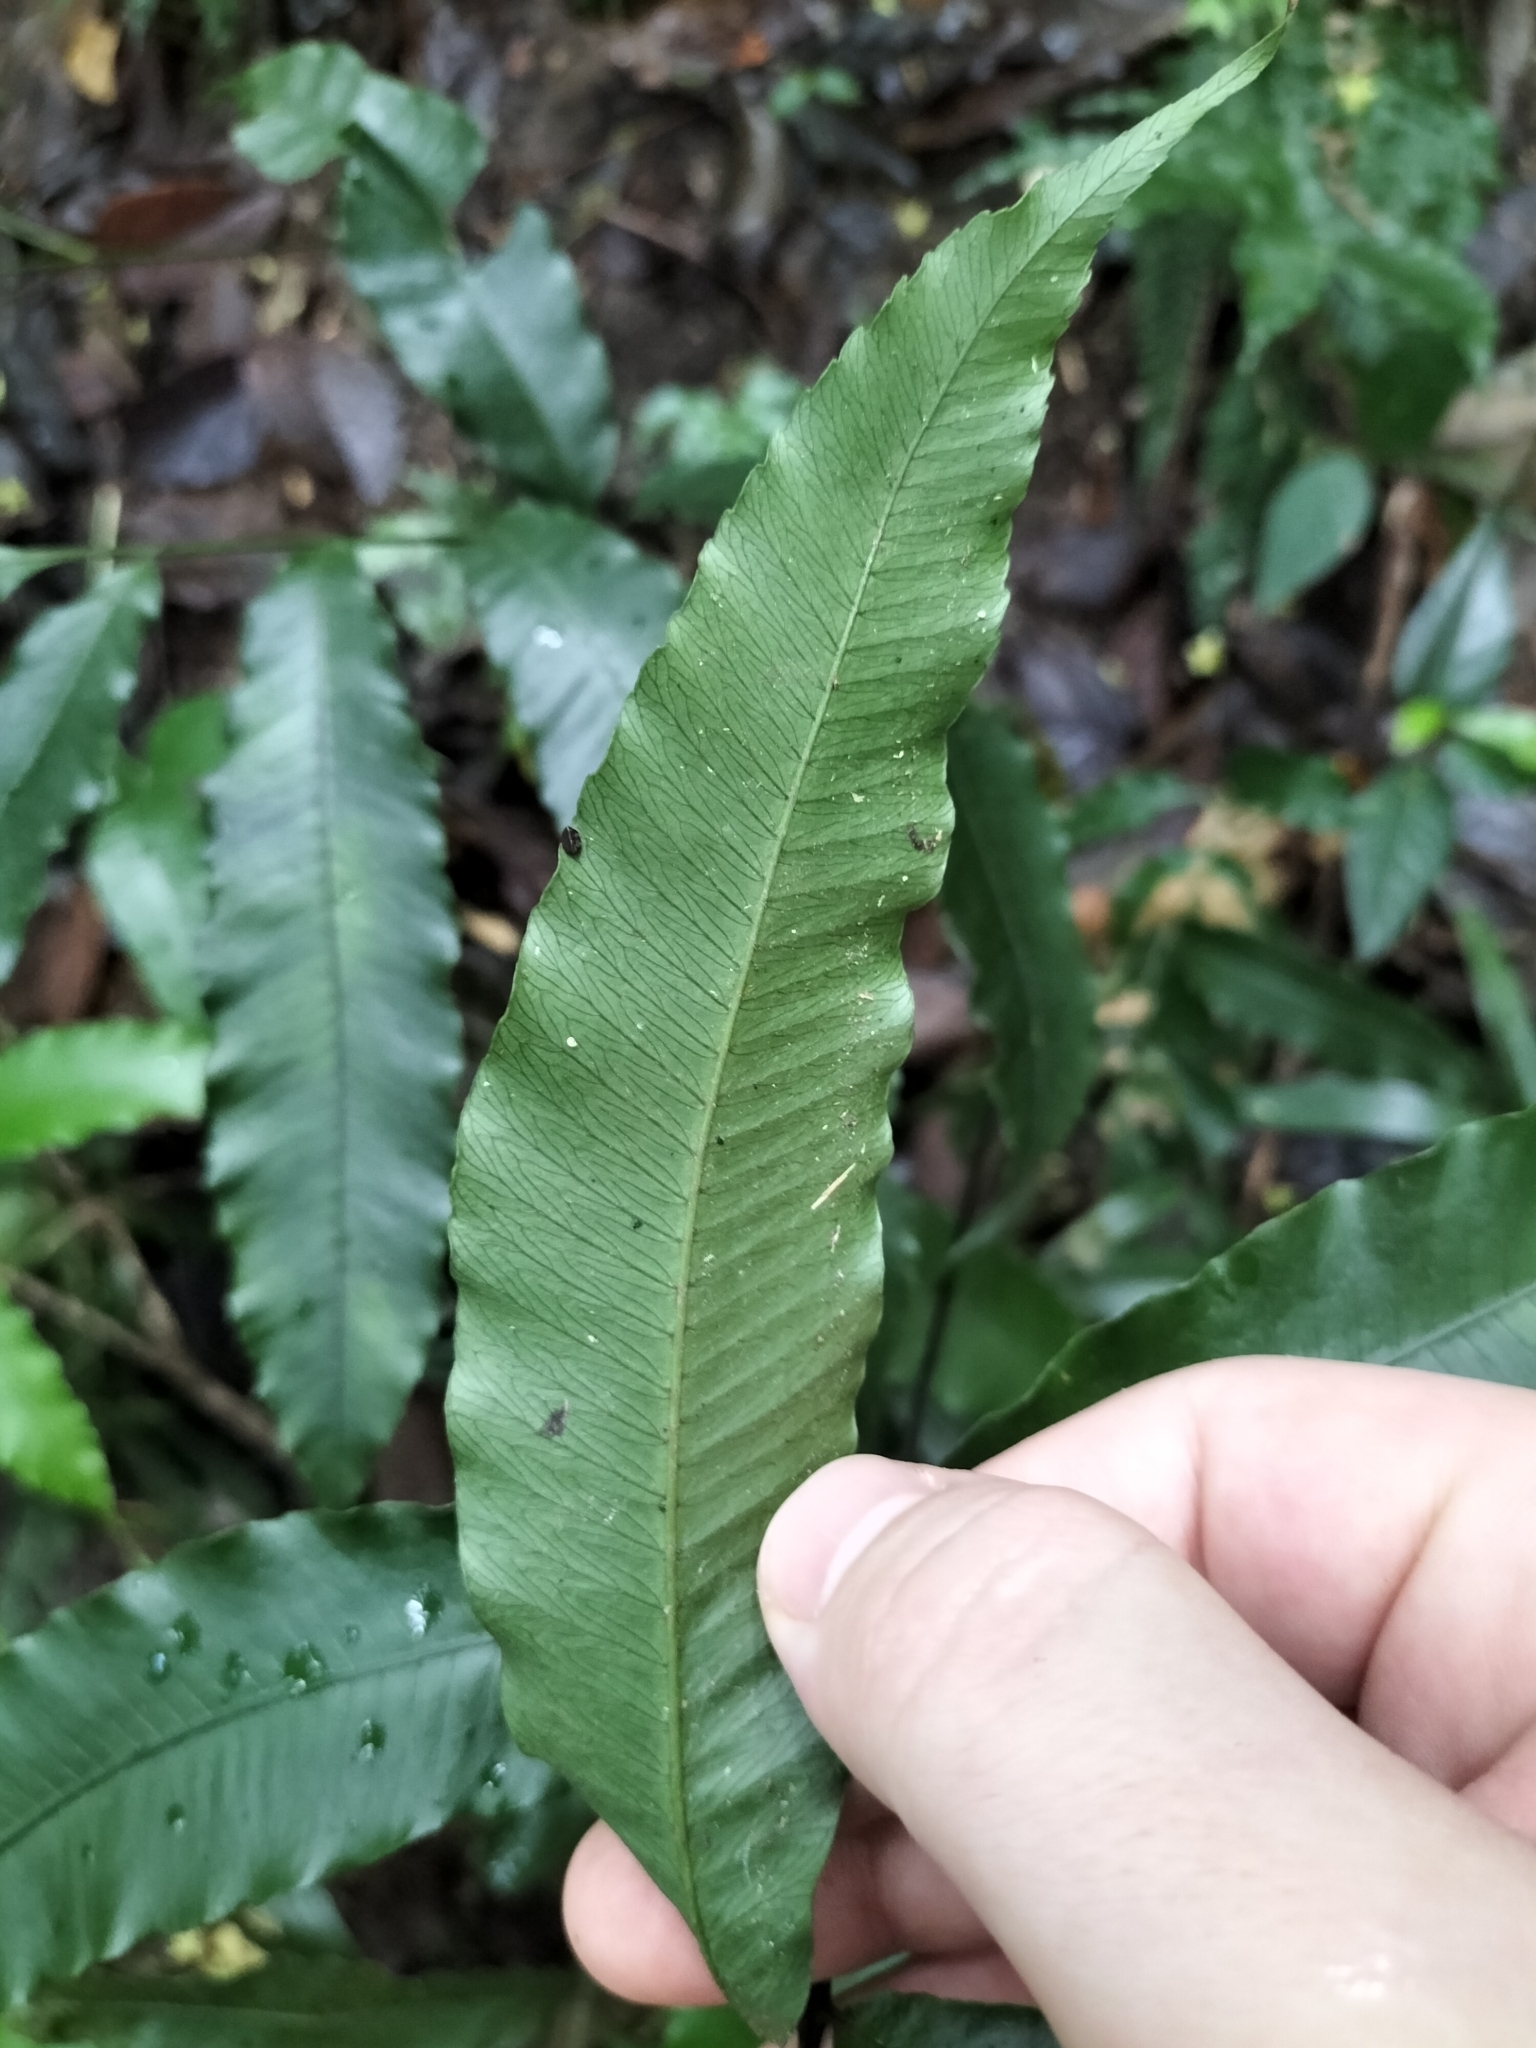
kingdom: Plantae
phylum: Tracheophyta
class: Polypodiopsida
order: Polypodiales
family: Dryopteridaceae
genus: Lastreopsis
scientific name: Lastreopsis poecilophlebia
